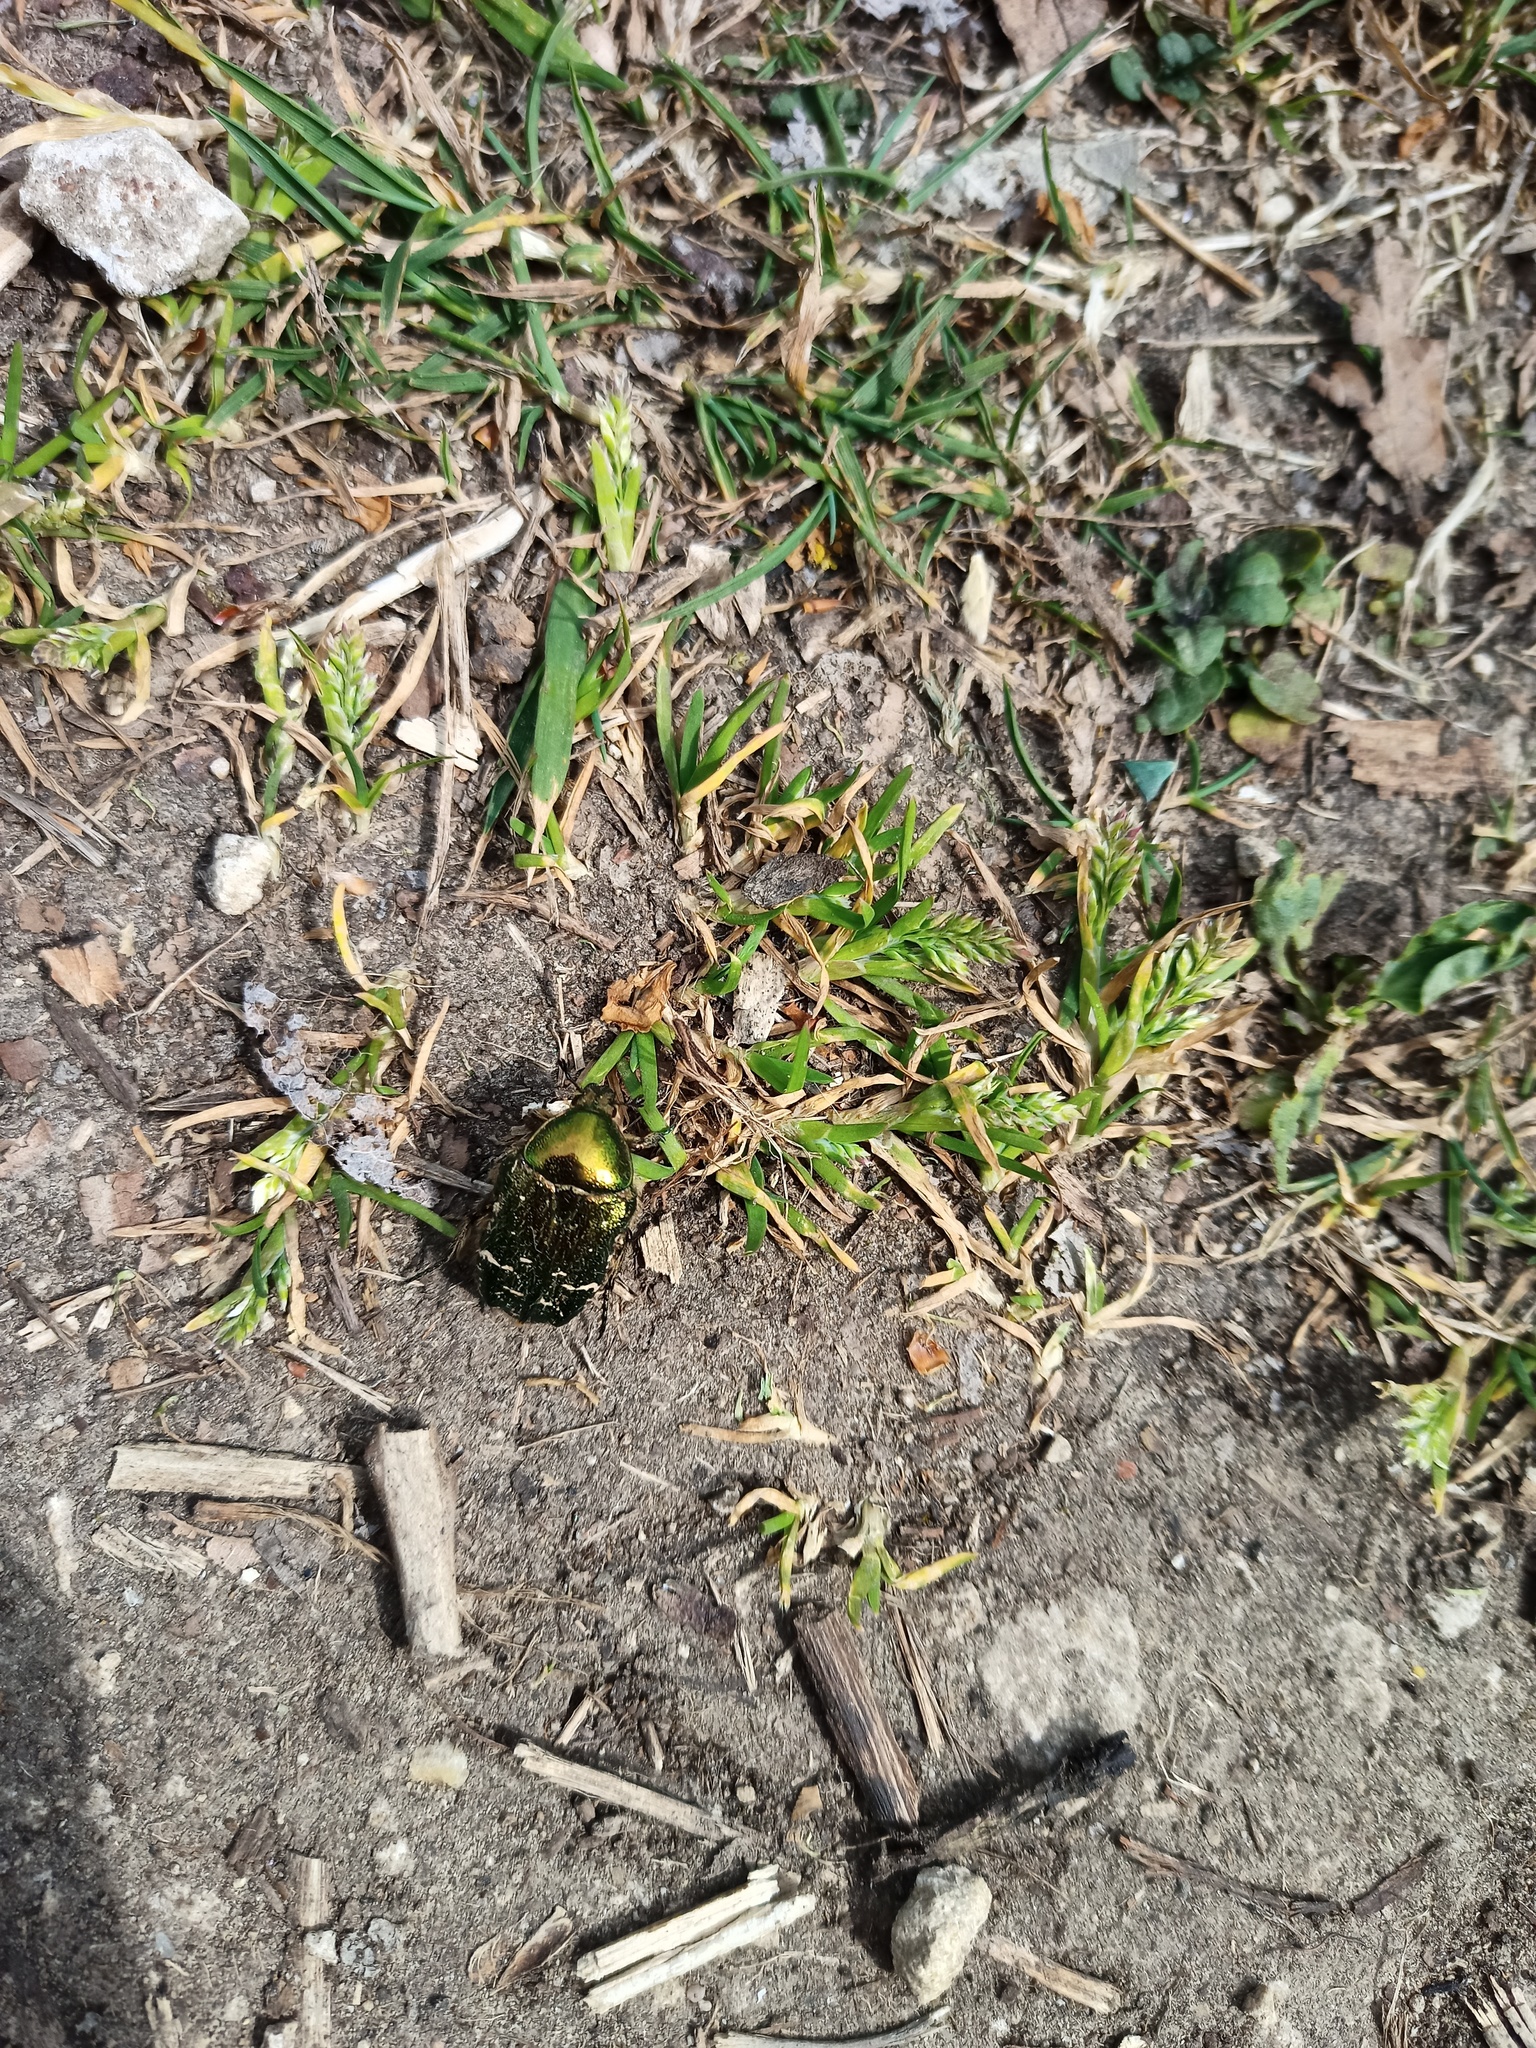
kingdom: Animalia
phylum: Arthropoda
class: Insecta
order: Coleoptera
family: Scarabaeidae
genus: Cetonia
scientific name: Cetonia aurata
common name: Rose chafer
